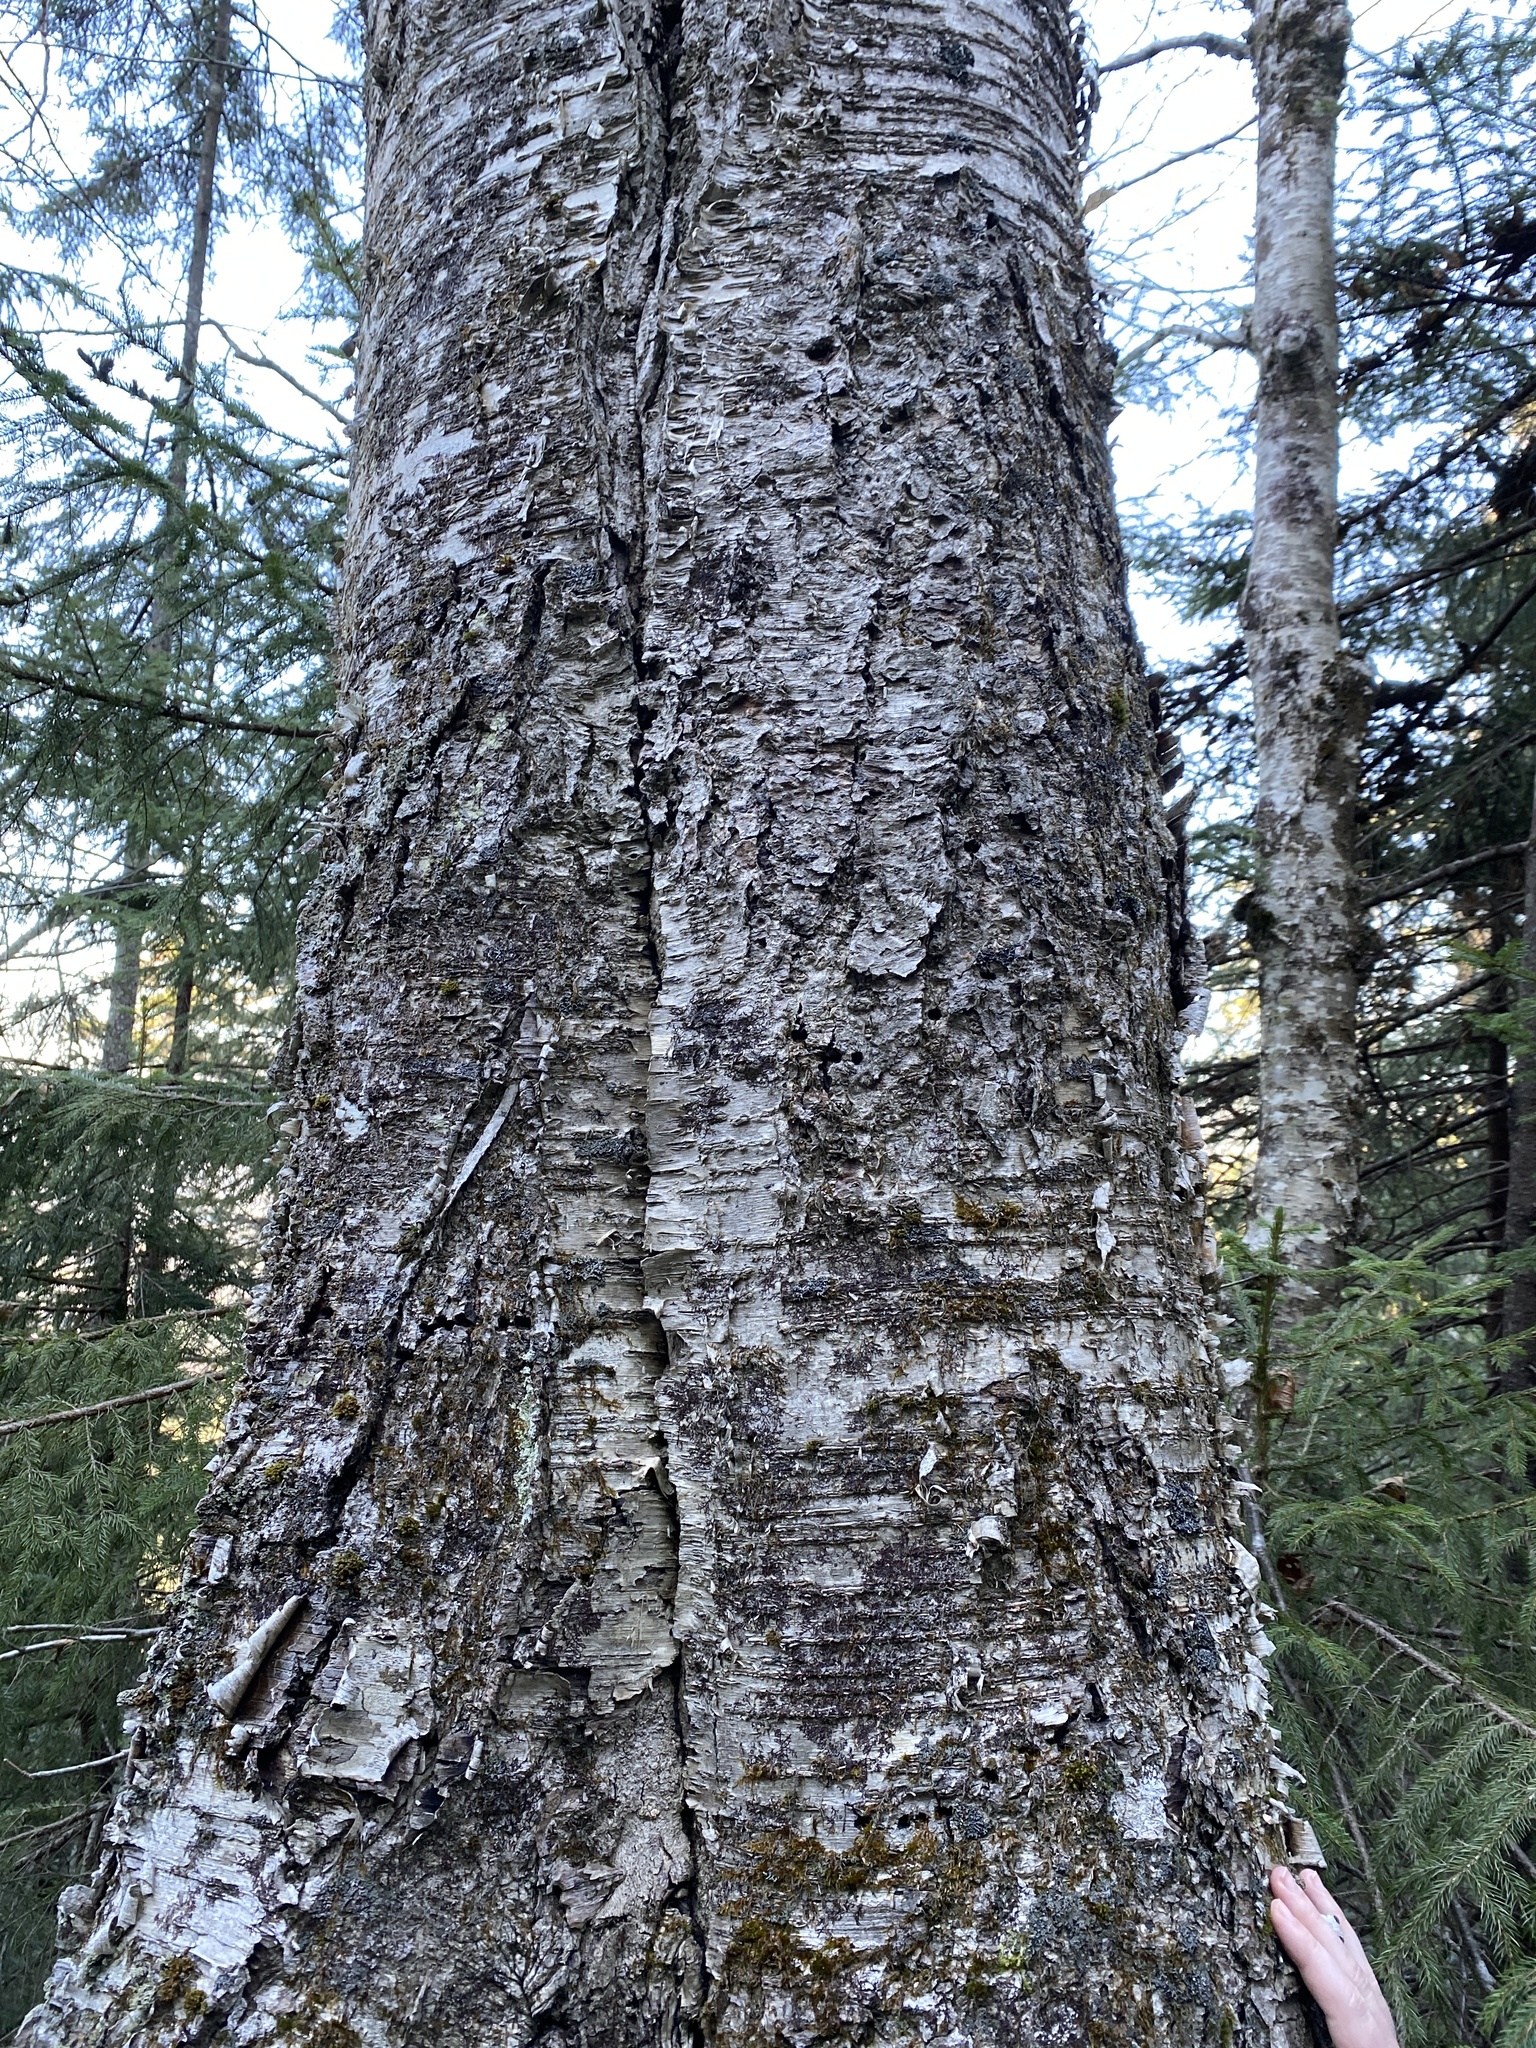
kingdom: Plantae
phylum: Tracheophyta
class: Magnoliopsida
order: Fagales
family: Betulaceae
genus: Betula
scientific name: Betula alleghaniensis
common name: Yellow birch
